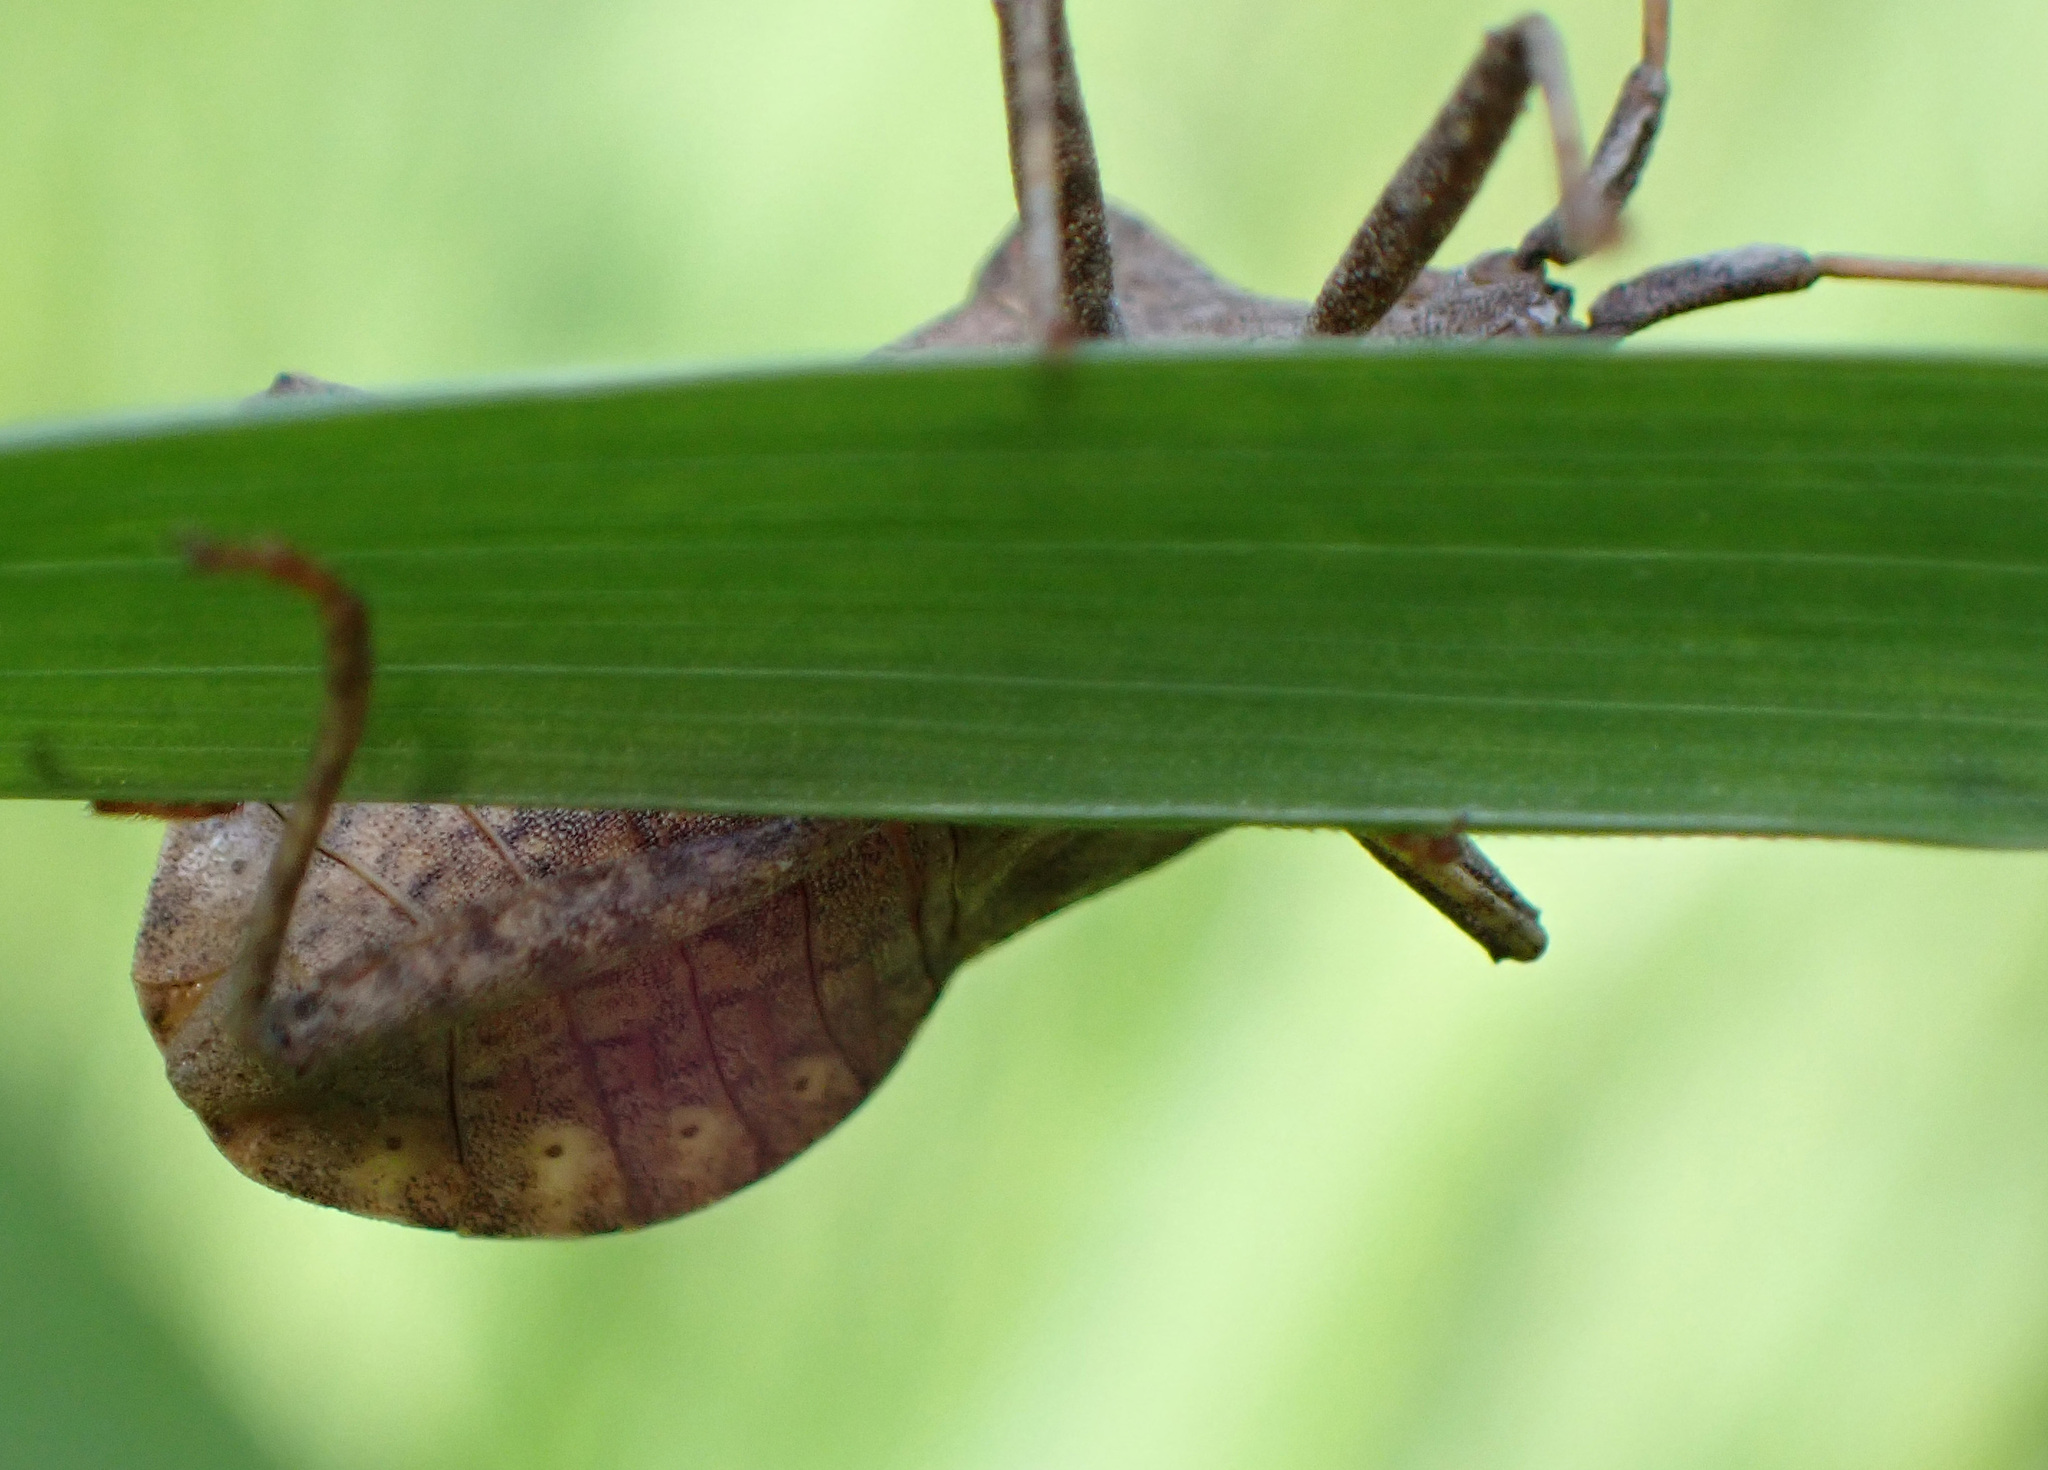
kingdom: Animalia
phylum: Arthropoda
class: Insecta
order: Hemiptera
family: Coreidae
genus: Coreus
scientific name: Coreus marginatus
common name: Dock bug
